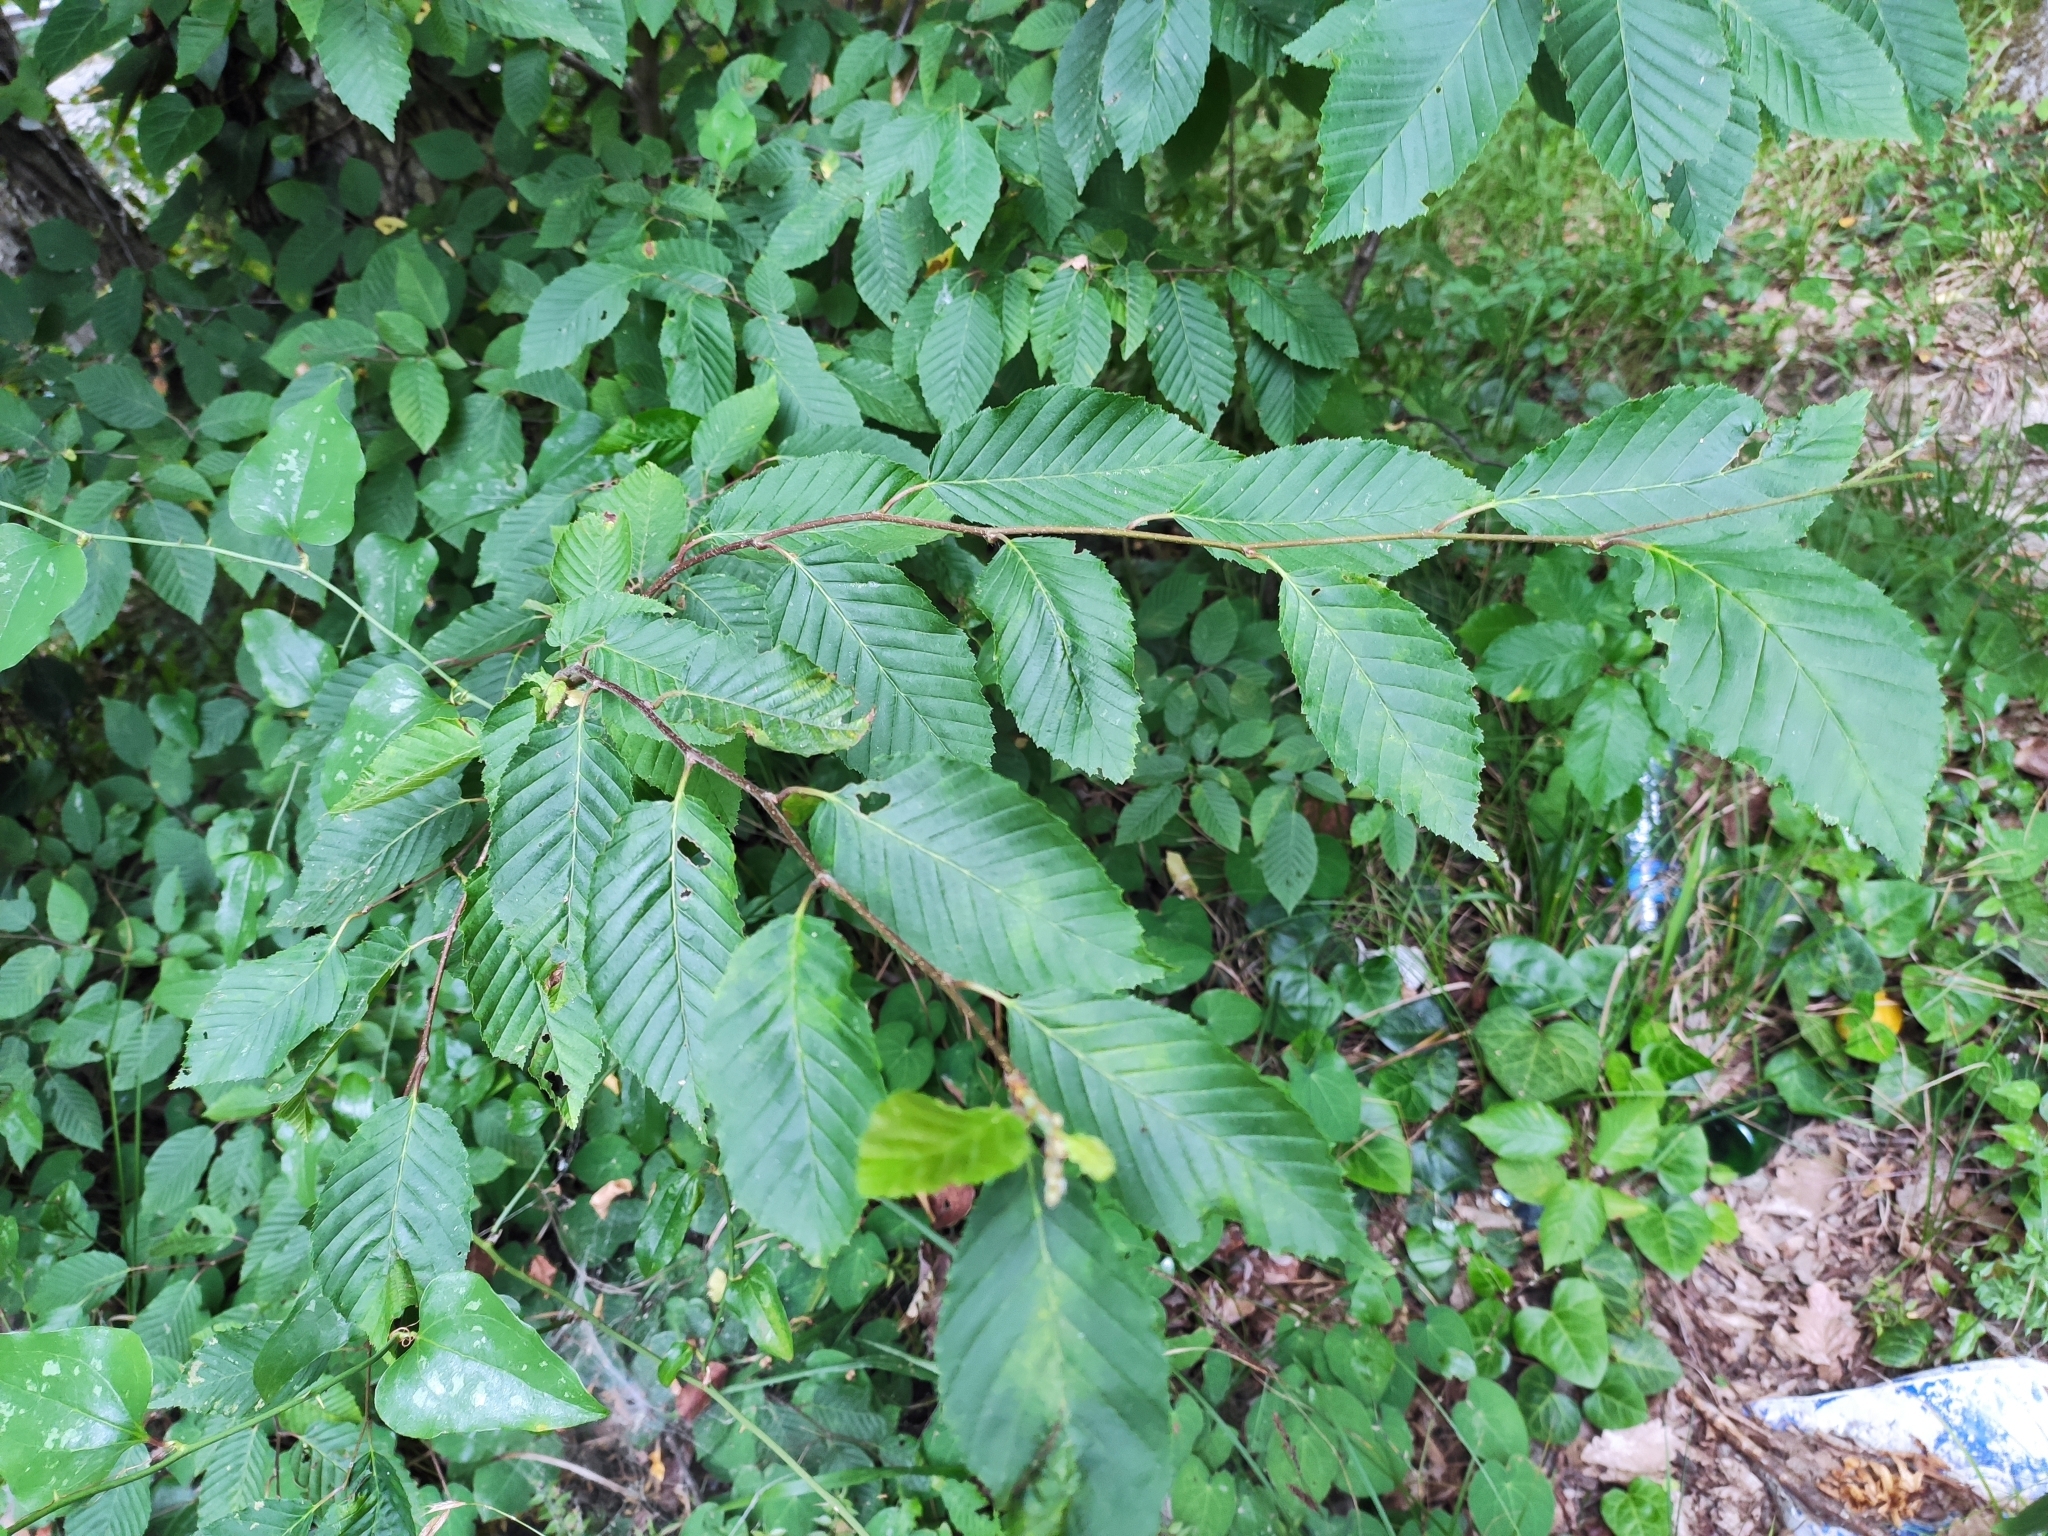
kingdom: Plantae
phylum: Tracheophyta
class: Magnoliopsida
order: Fagales
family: Betulaceae
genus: Carpinus
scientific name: Carpinus betulus
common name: Hornbeam
